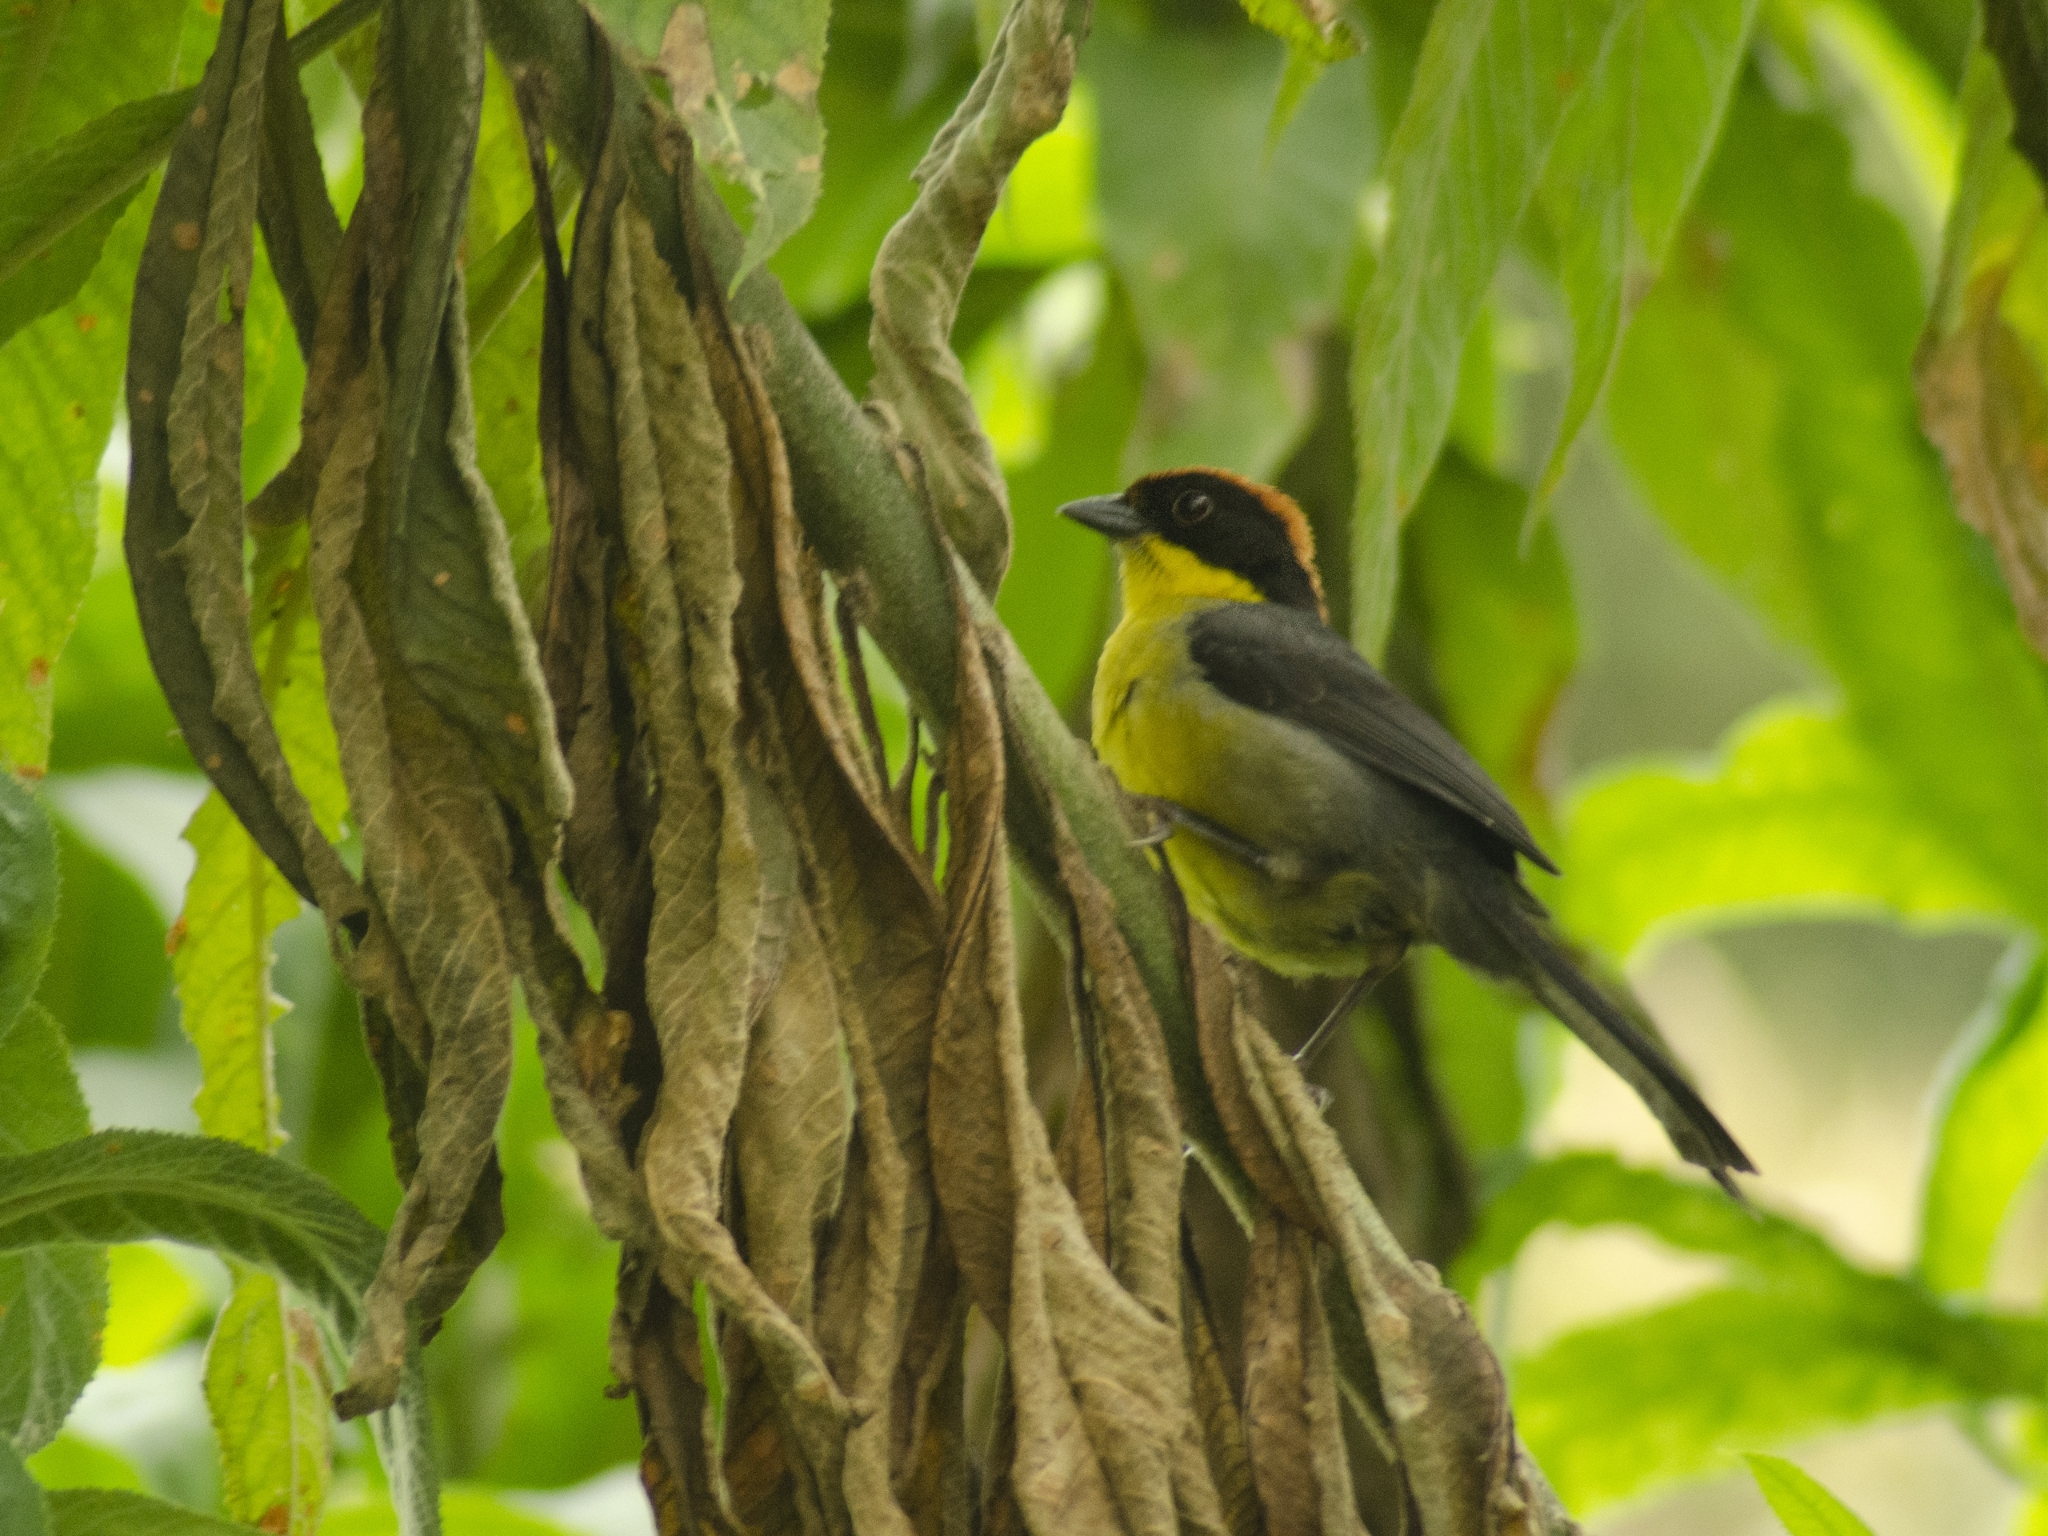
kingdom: Animalia
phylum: Chordata
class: Aves
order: Passeriformes
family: Passerellidae
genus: Atlapetes
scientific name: Atlapetes latinuchus
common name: Yellow-breasted brushfinch
